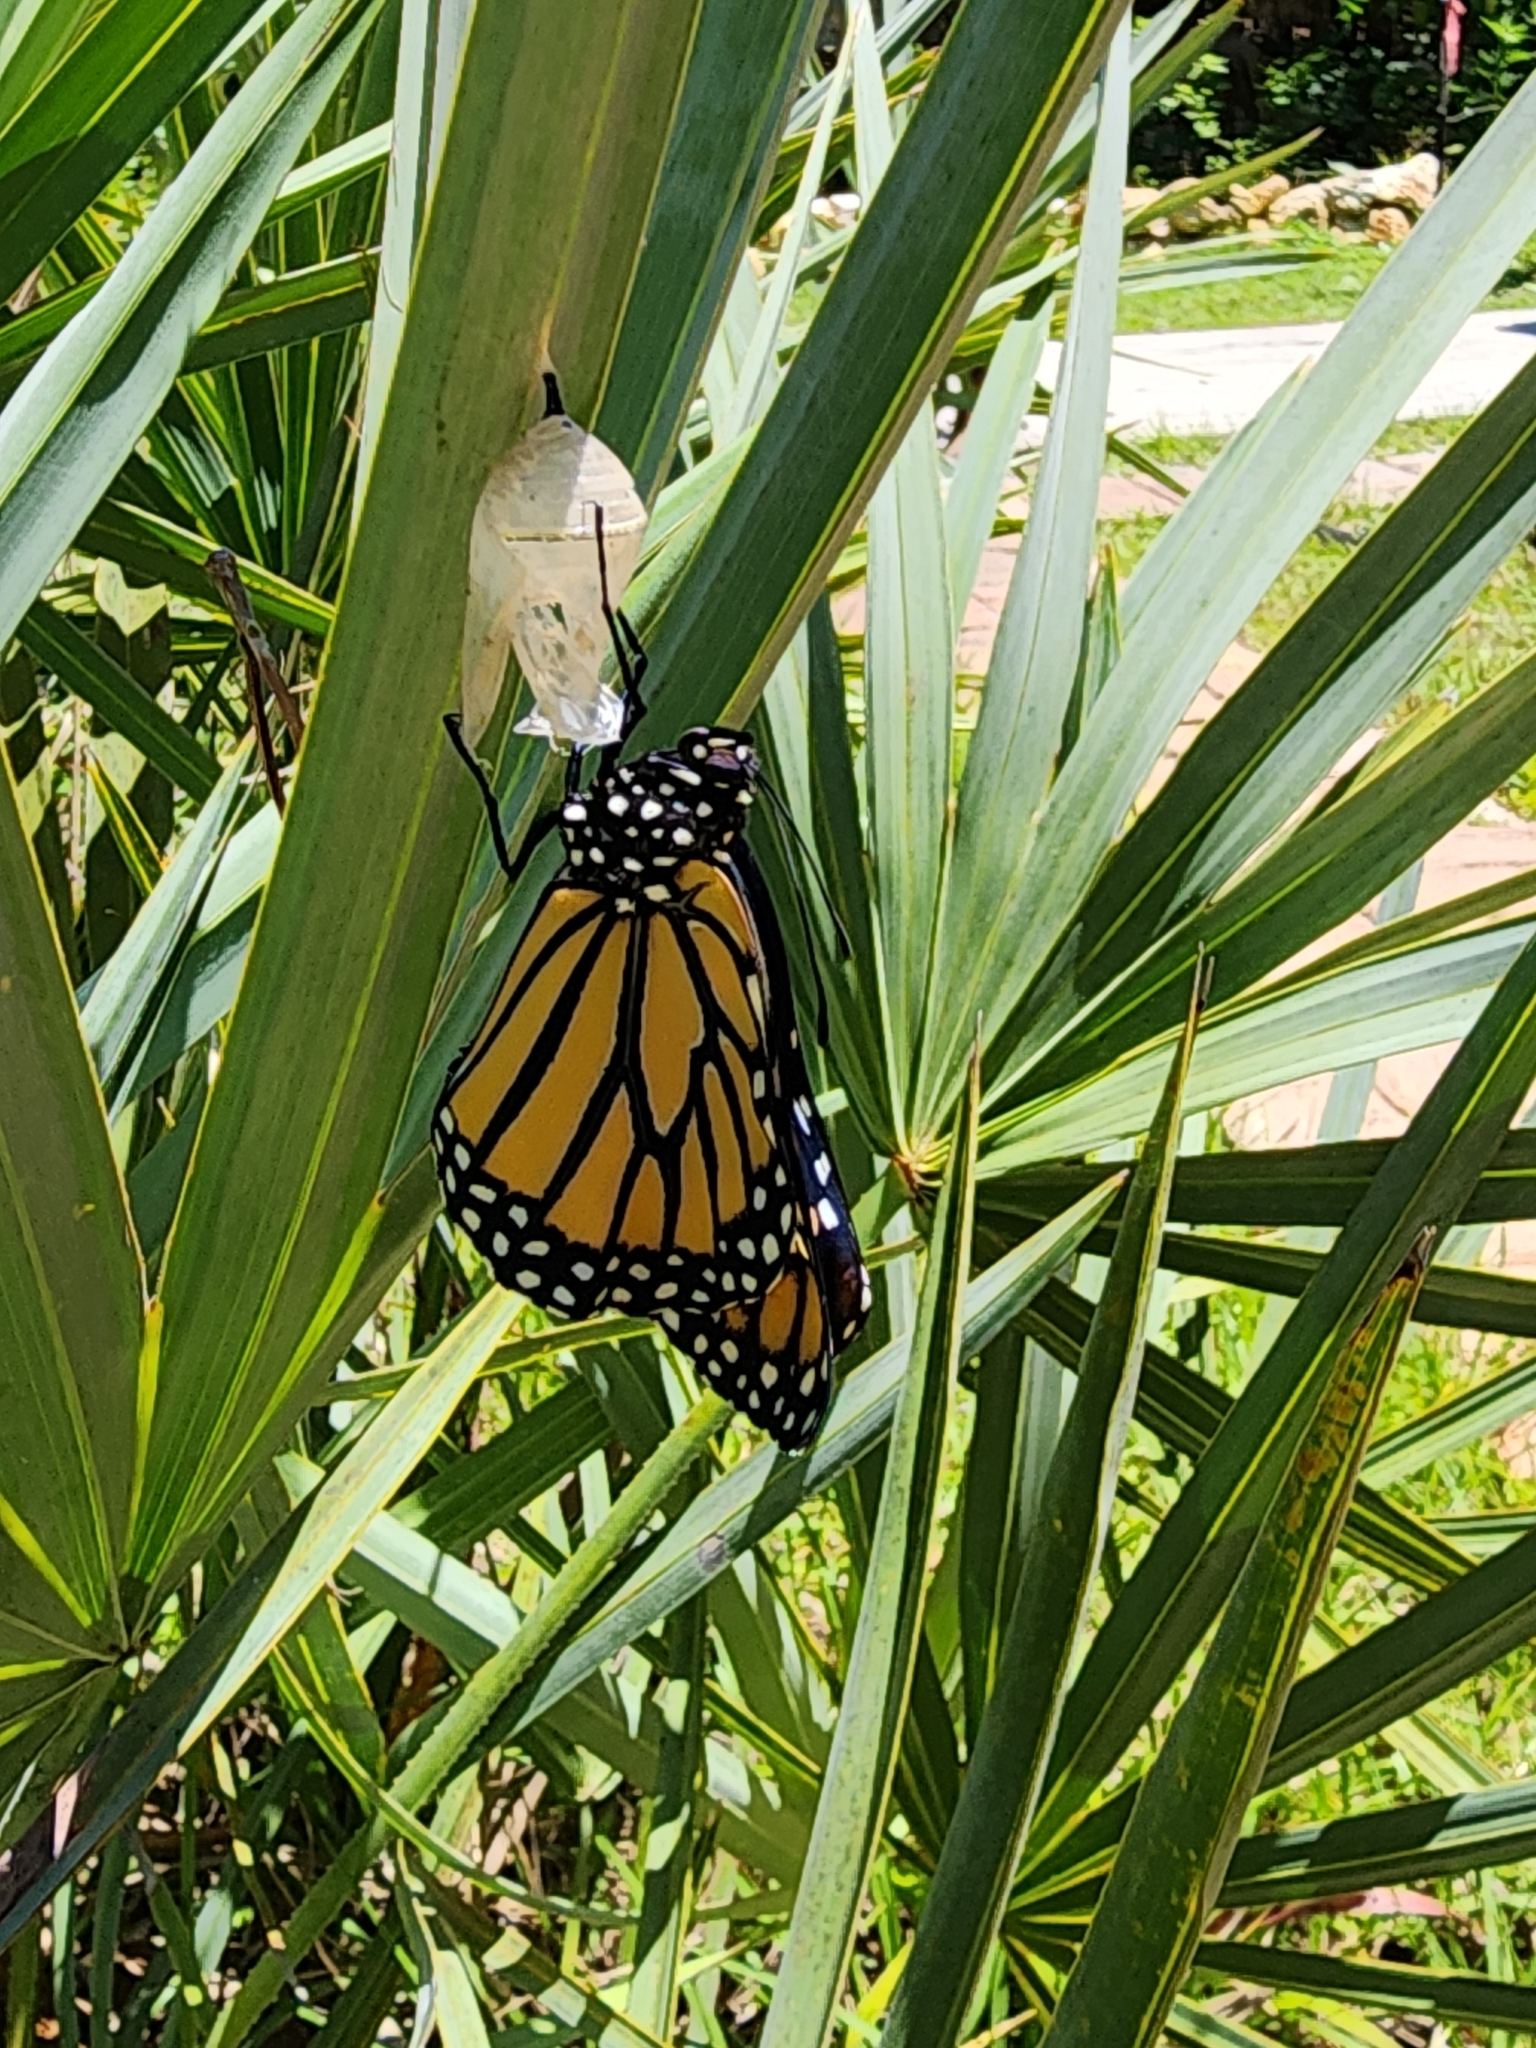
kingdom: Animalia
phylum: Arthropoda
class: Insecta
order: Lepidoptera
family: Nymphalidae
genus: Danaus
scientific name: Danaus plexippus
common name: Monarch
